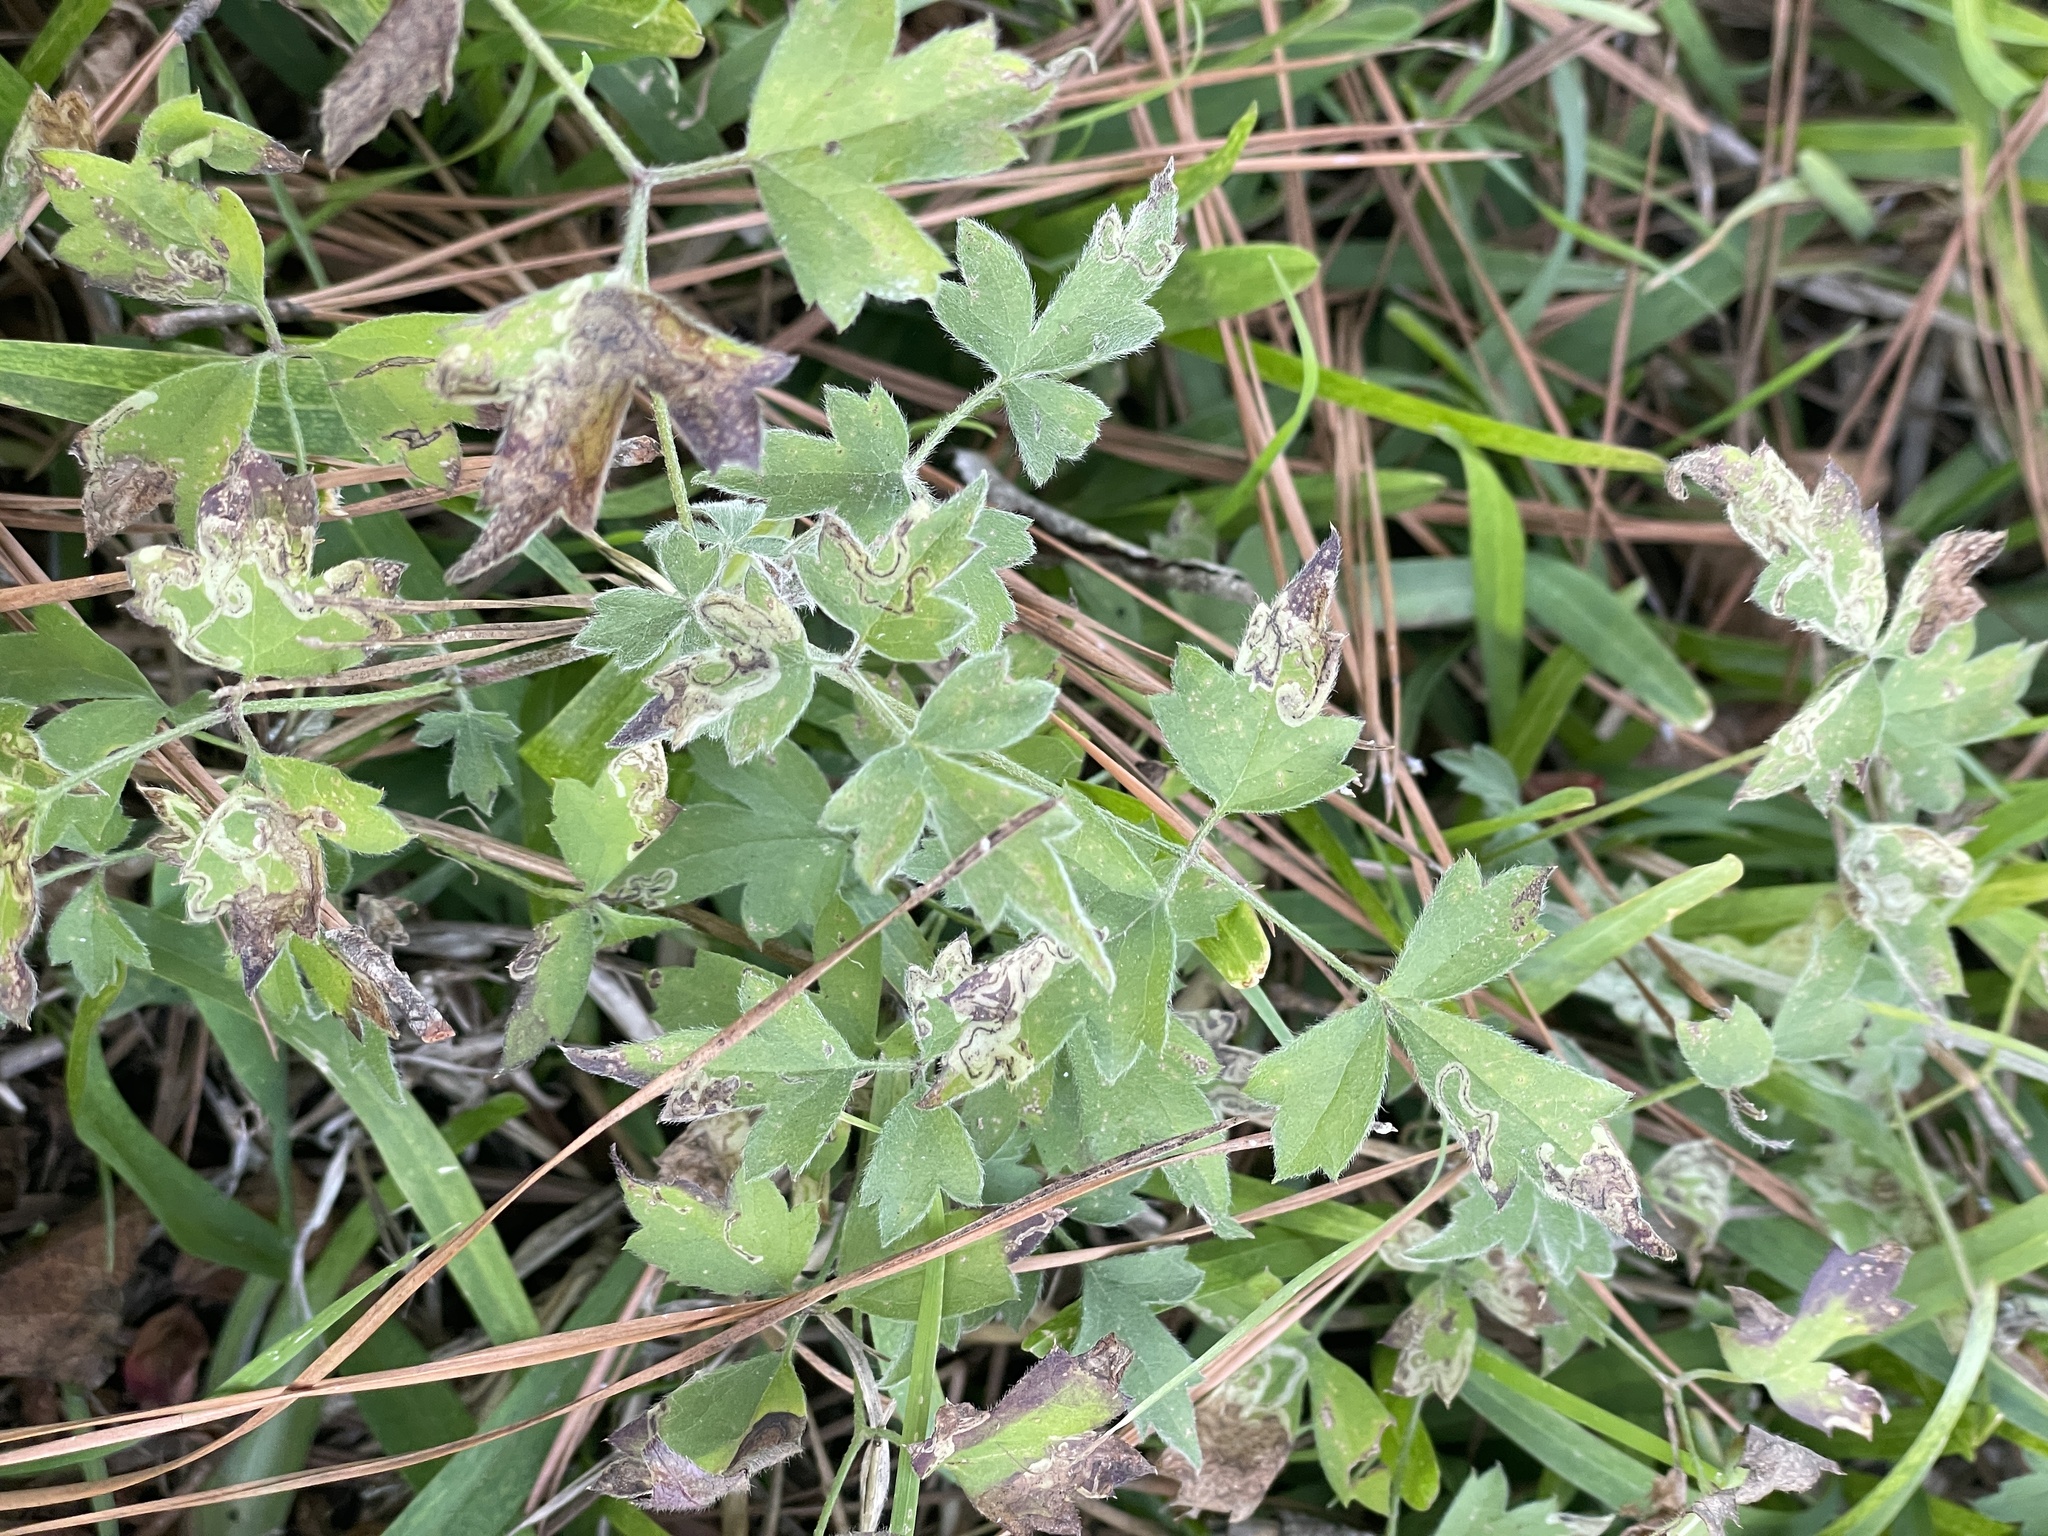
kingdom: Plantae
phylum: Tracheophyta
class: Magnoliopsida
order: Ranunculales
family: Ranunculaceae
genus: Clematis
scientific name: Clematis drummondii
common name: Texas virgin's bower
